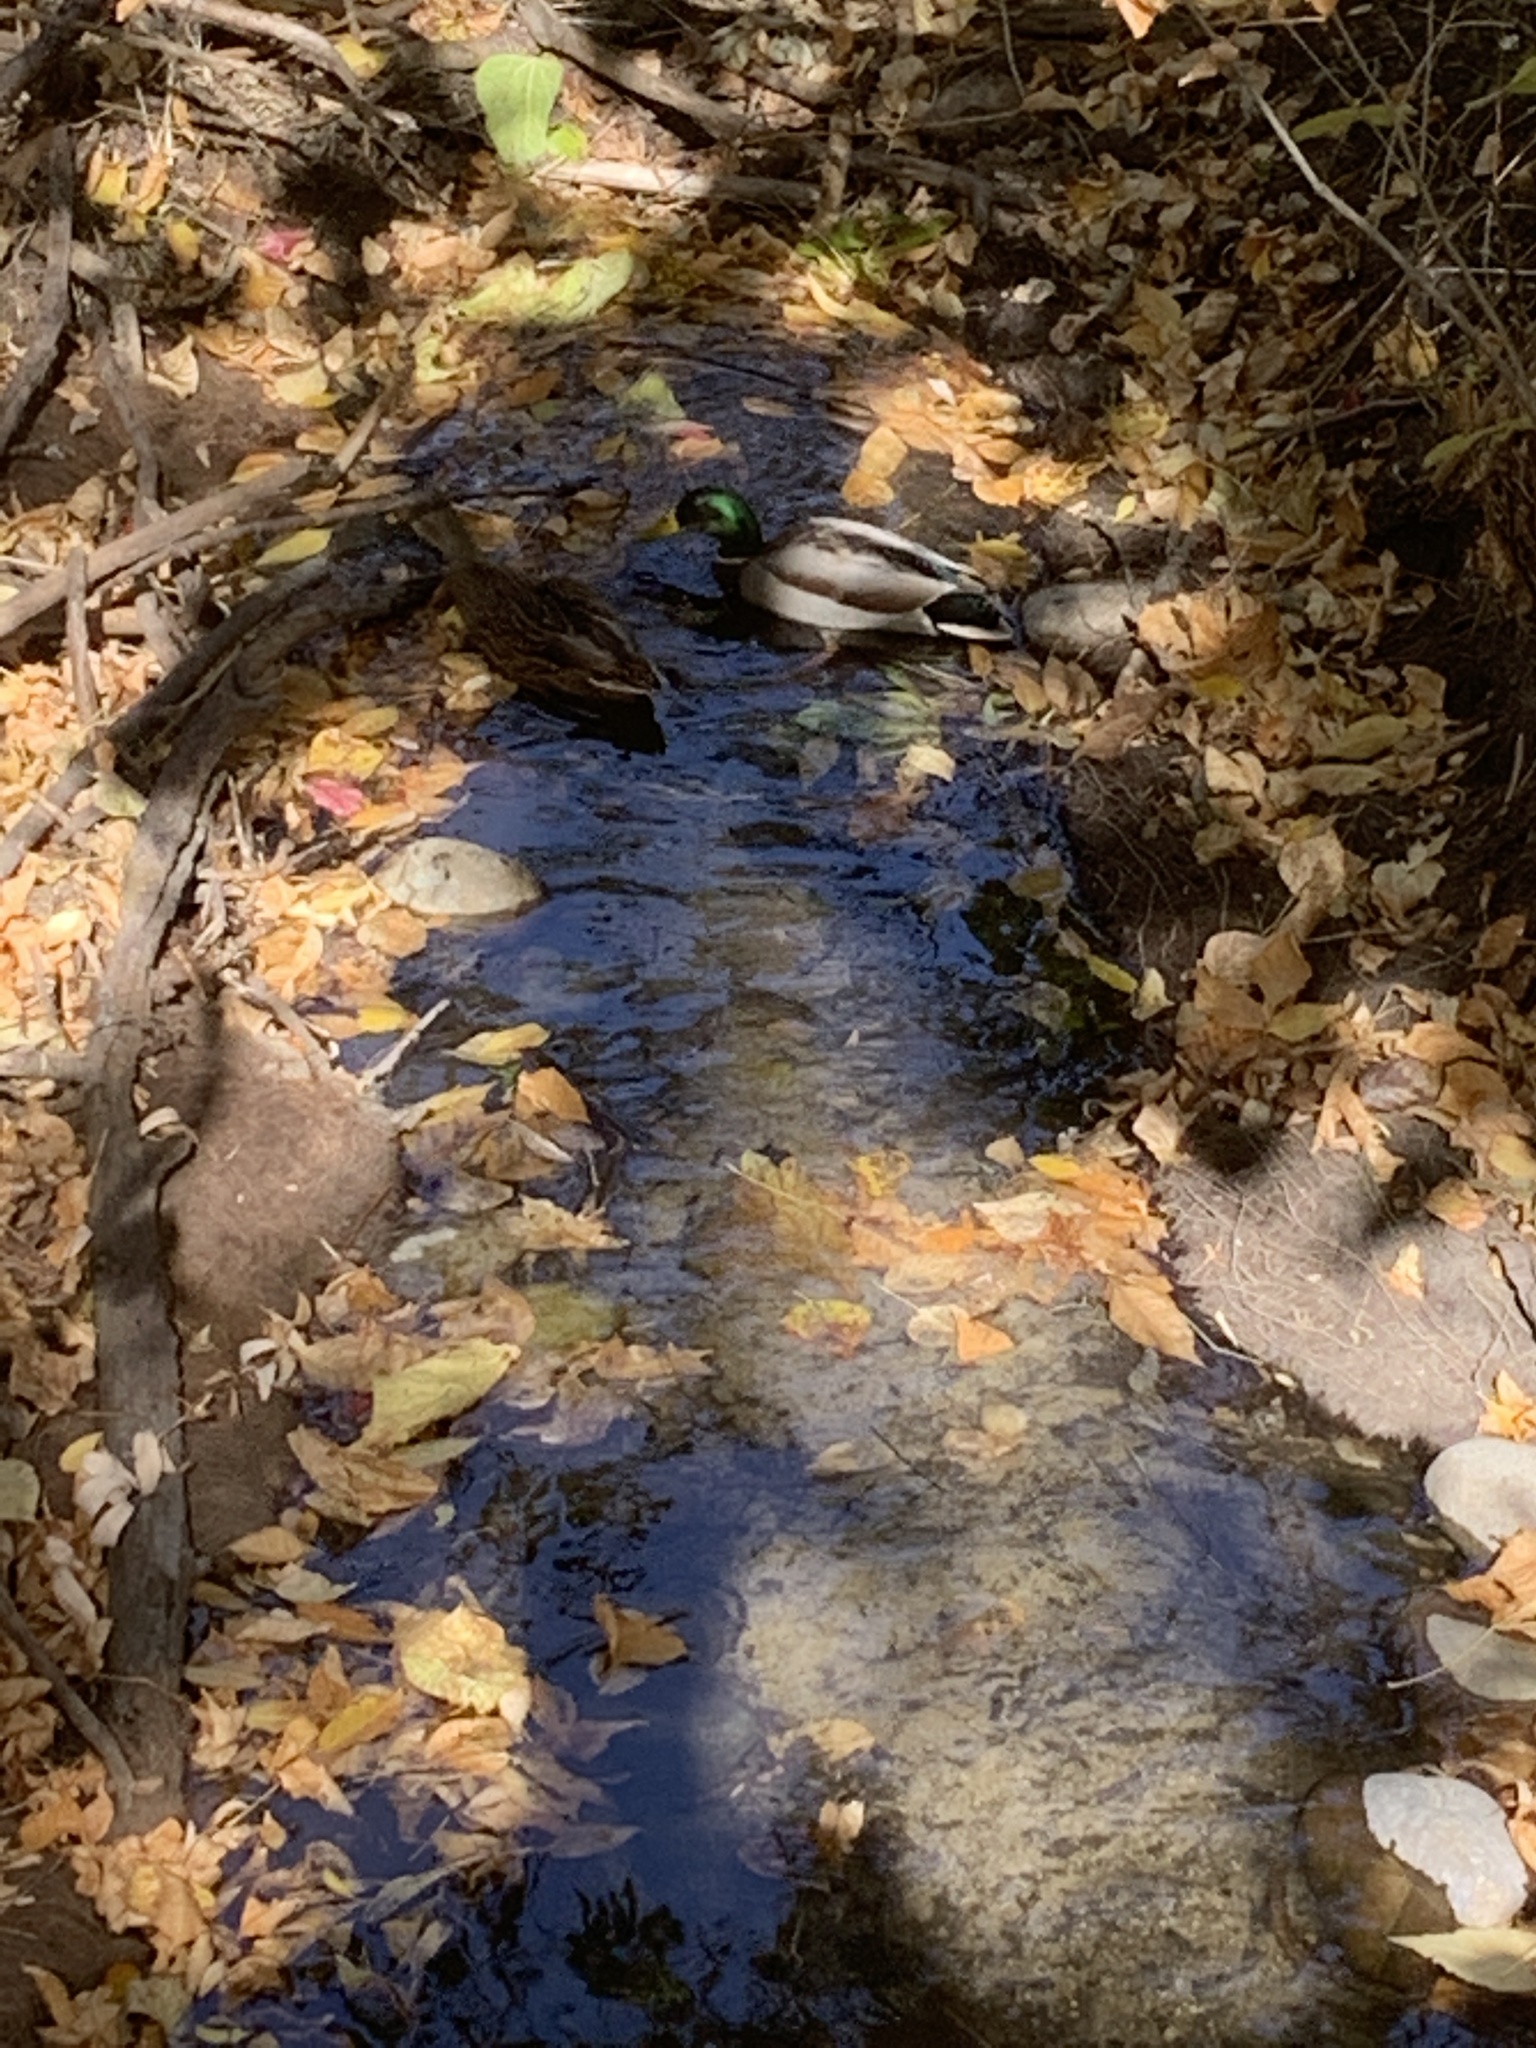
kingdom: Animalia
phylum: Chordata
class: Aves
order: Anseriformes
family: Anatidae
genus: Anas
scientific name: Anas platyrhynchos
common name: Mallard
